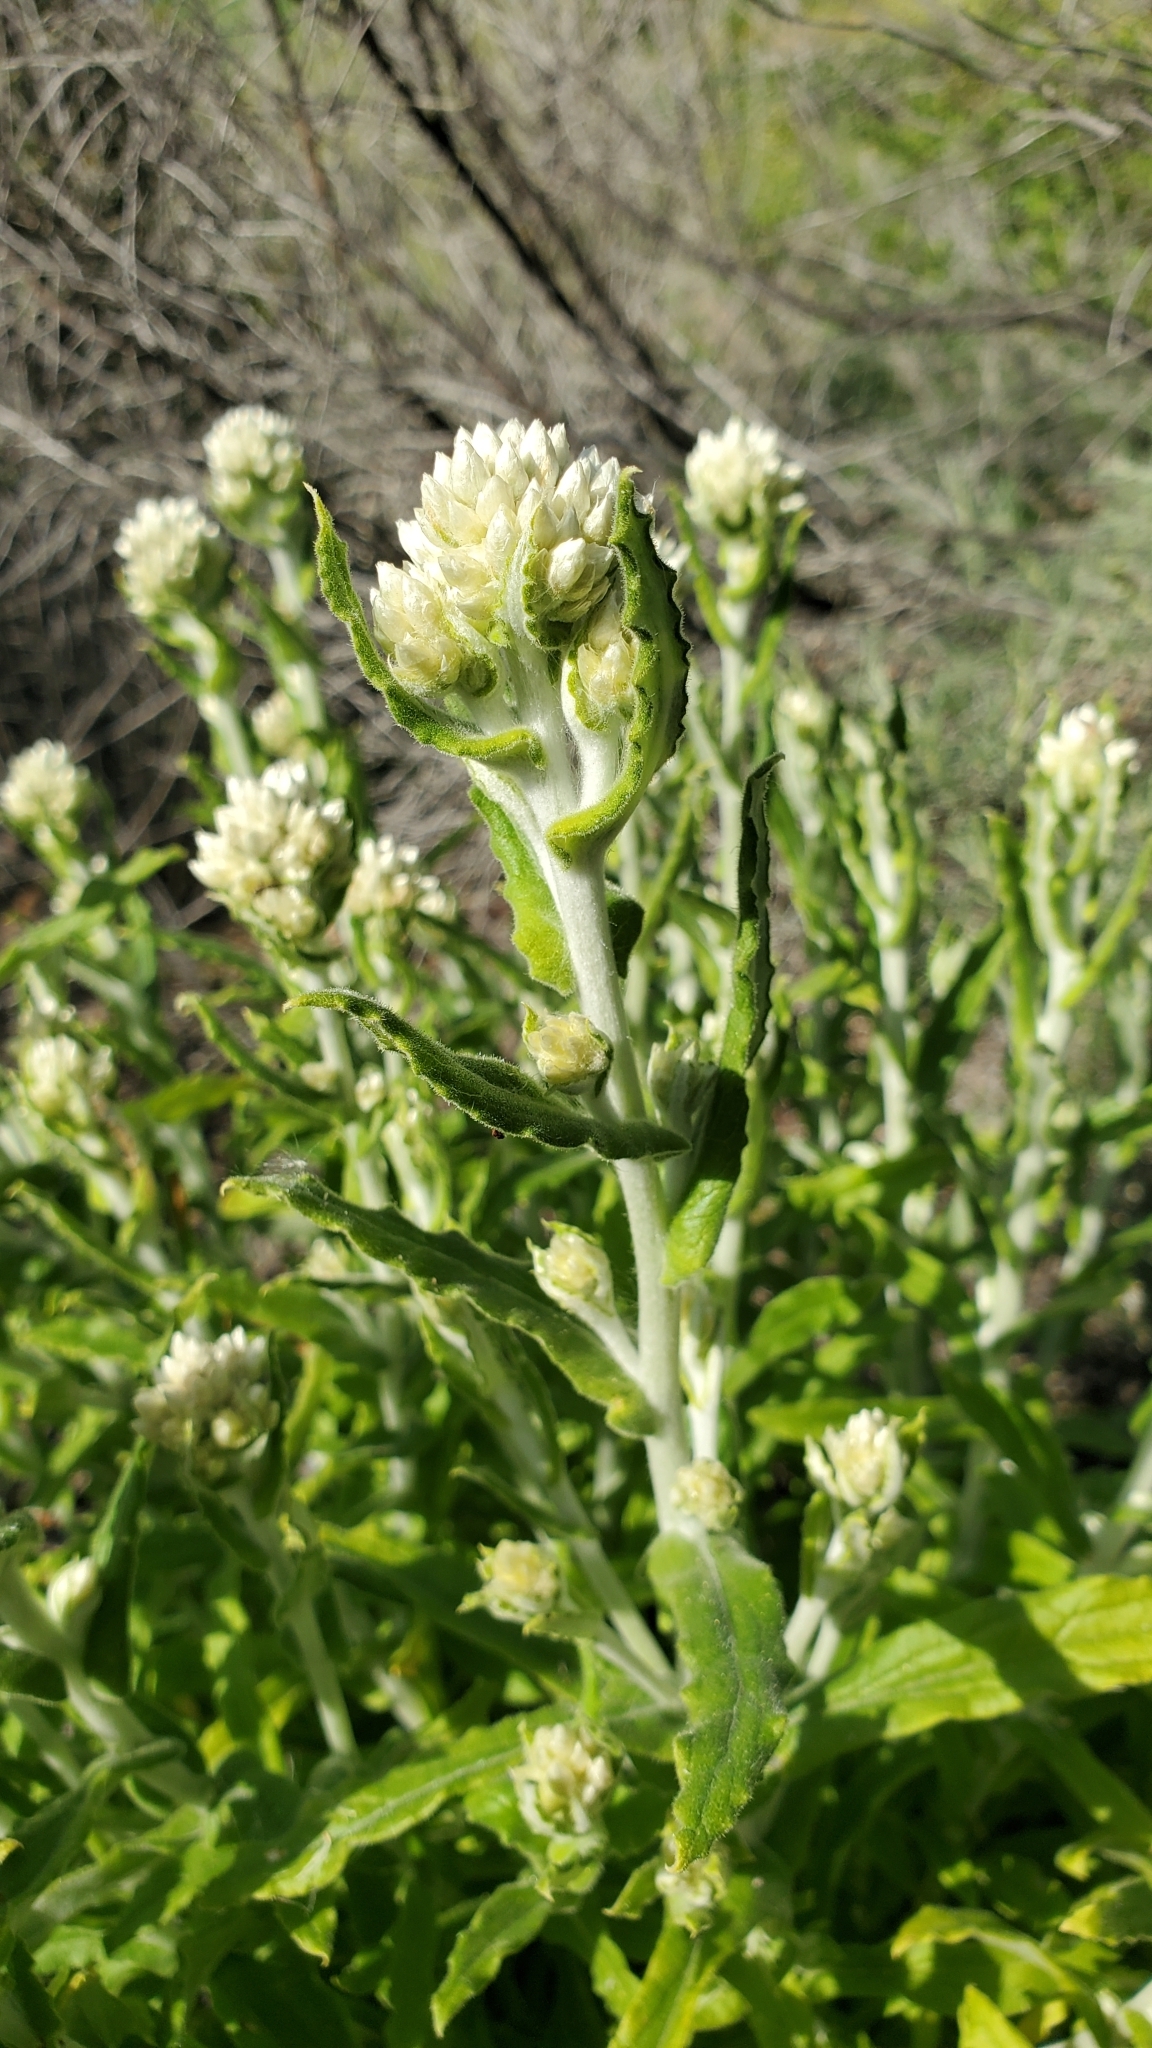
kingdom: Plantae
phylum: Tracheophyta
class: Magnoliopsida
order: Asterales
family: Asteraceae
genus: Pseudognaphalium
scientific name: Pseudognaphalium biolettii
